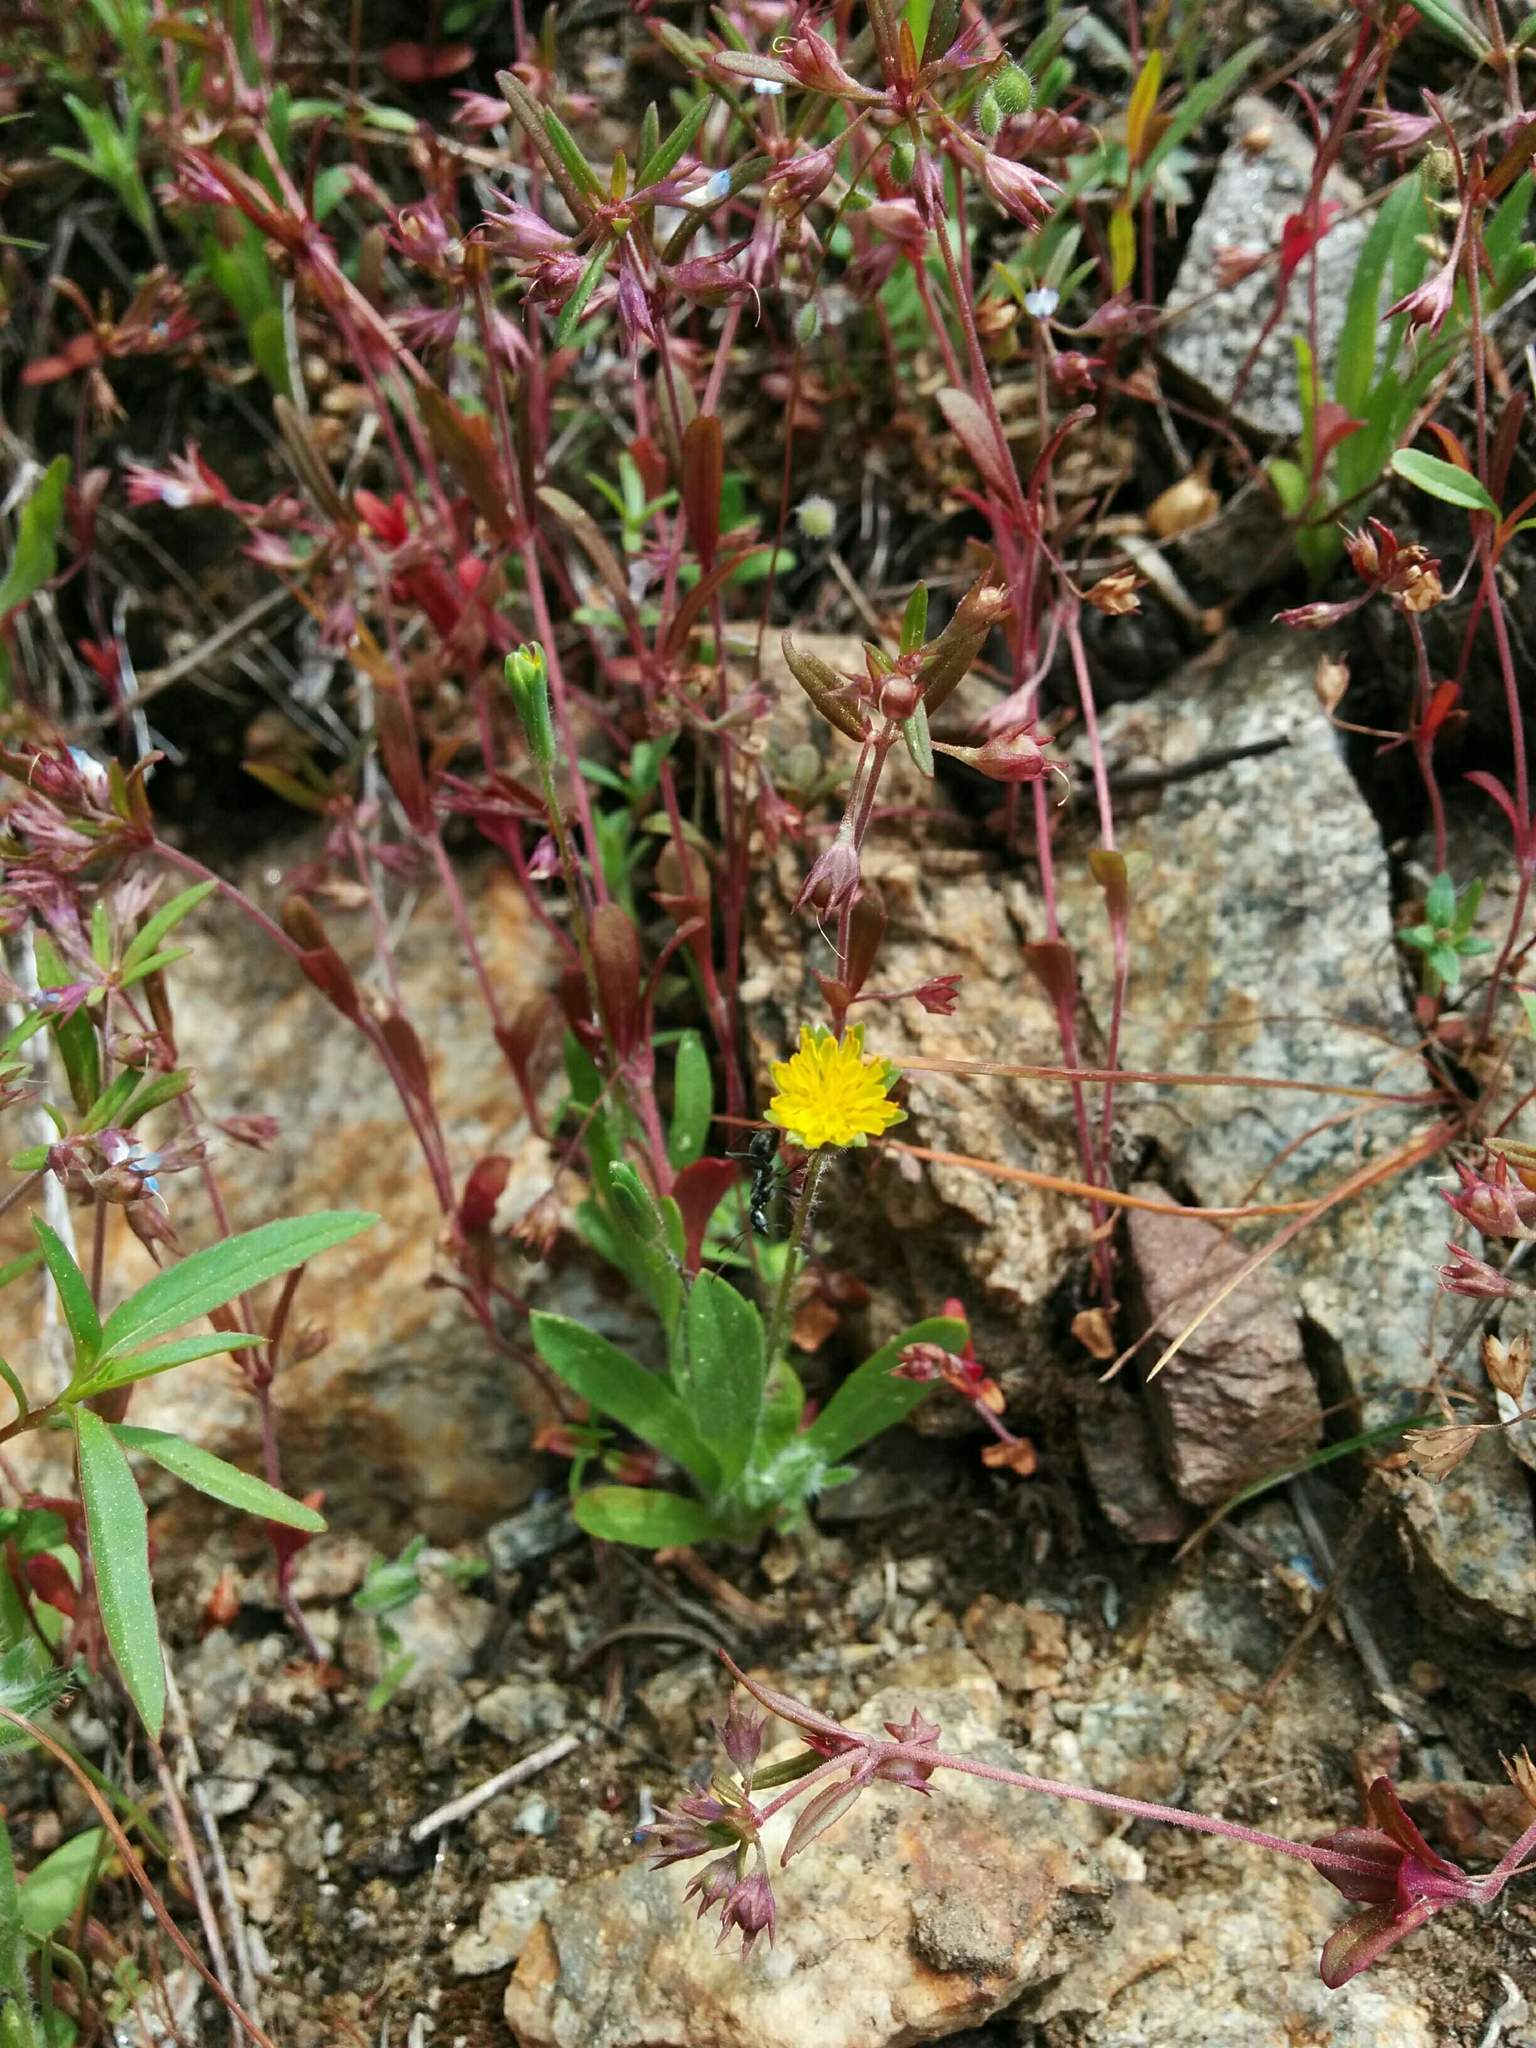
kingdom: Plantae
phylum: Tracheophyta
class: Magnoliopsida
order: Asterales
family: Asteraceae
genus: Agoseris
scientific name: Agoseris heterophylla
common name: Annual agoseris
